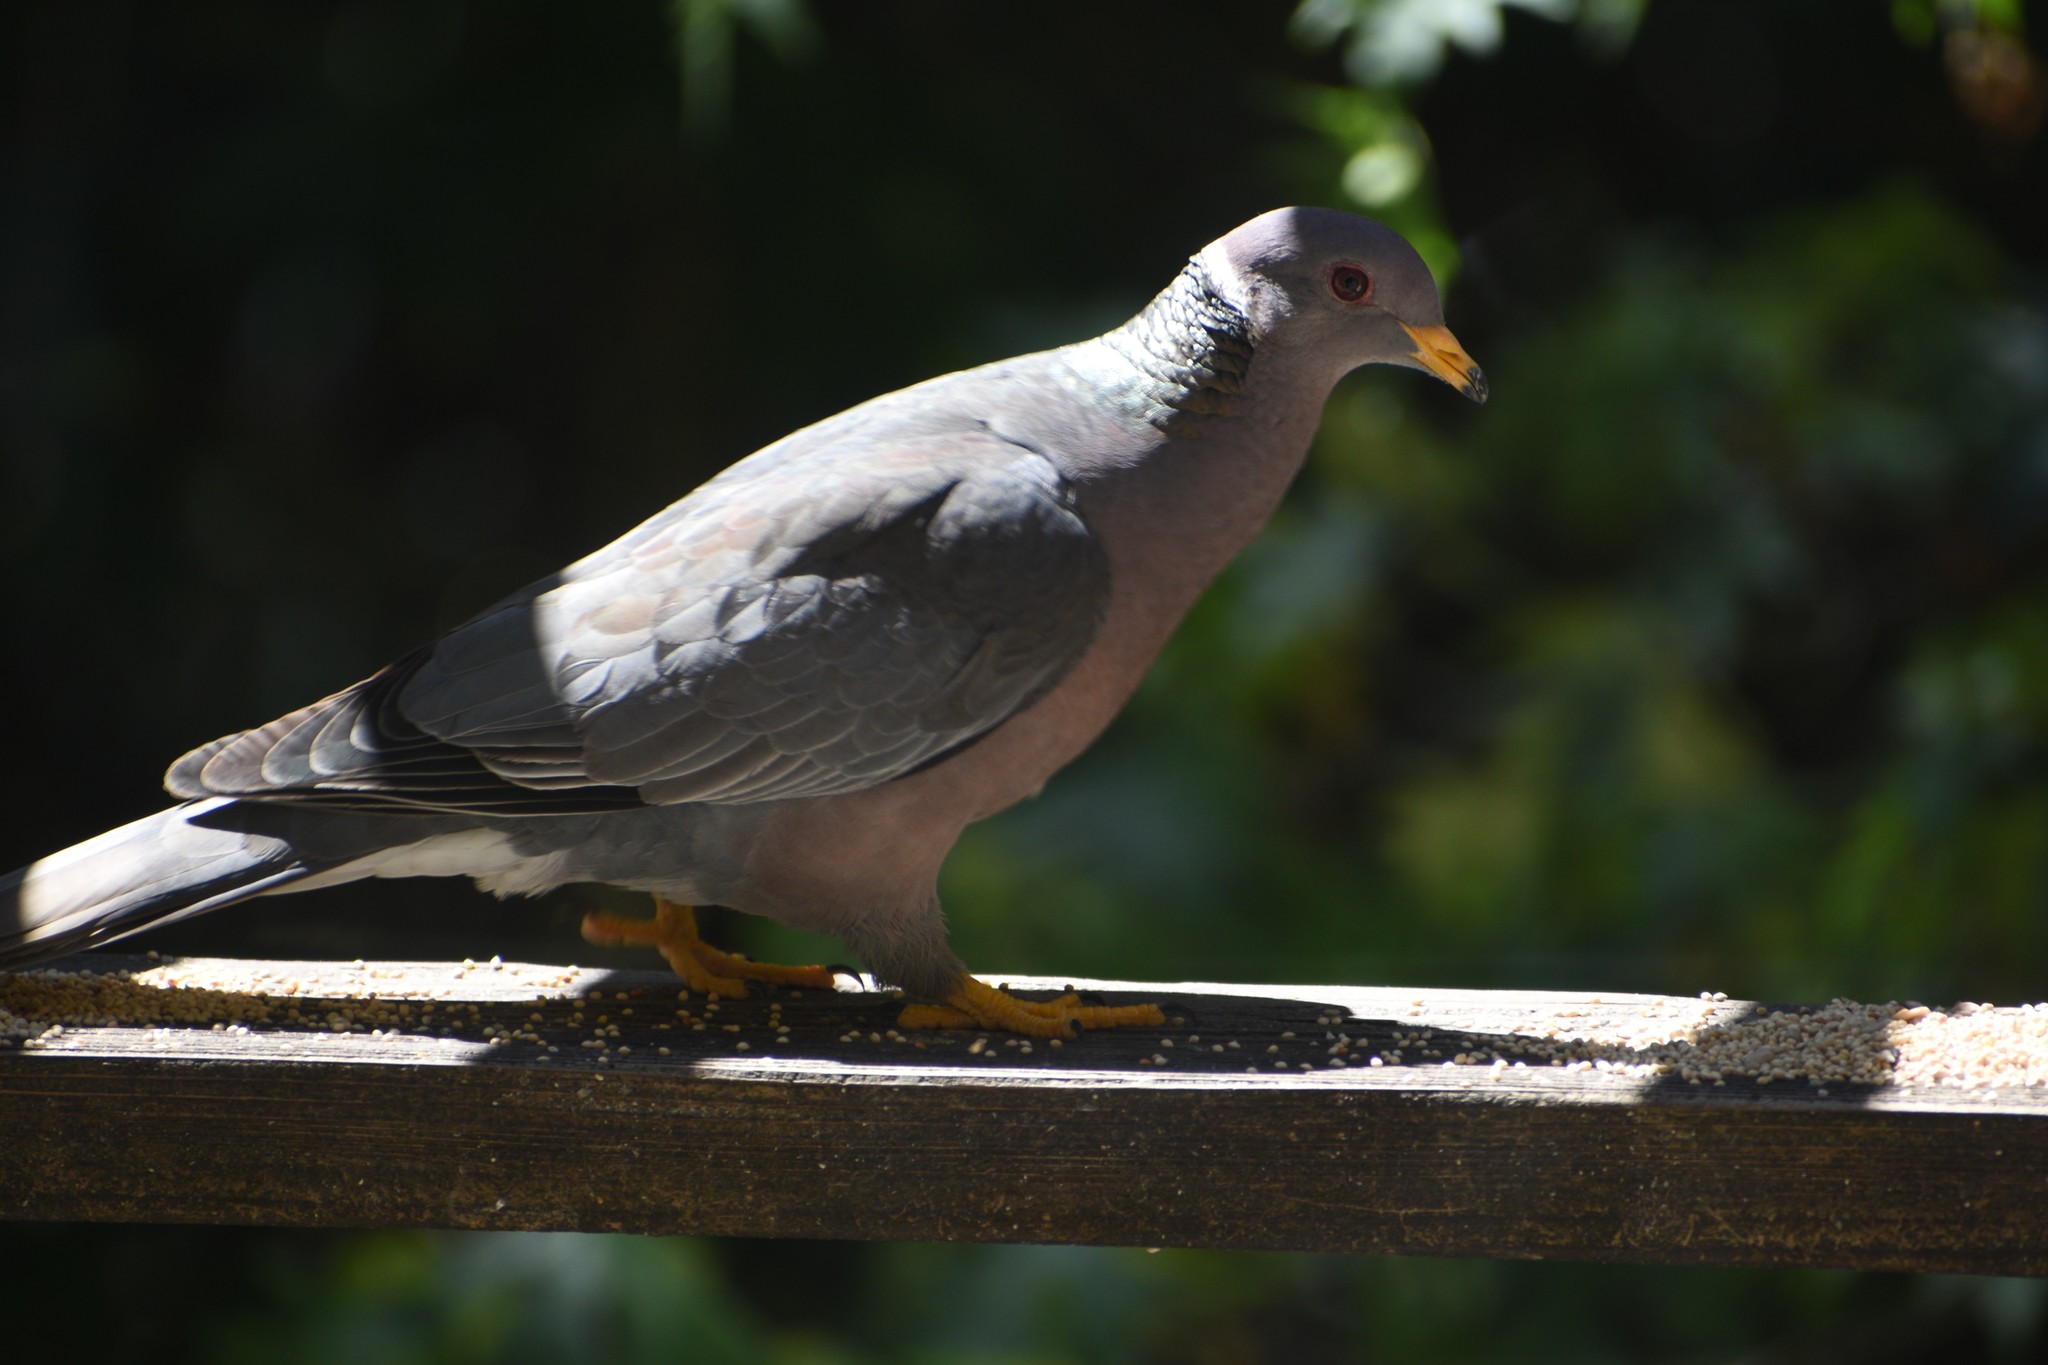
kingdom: Animalia
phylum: Chordata
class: Aves
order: Columbiformes
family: Columbidae
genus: Patagioenas
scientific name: Patagioenas fasciata
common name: Band-tailed pigeon
